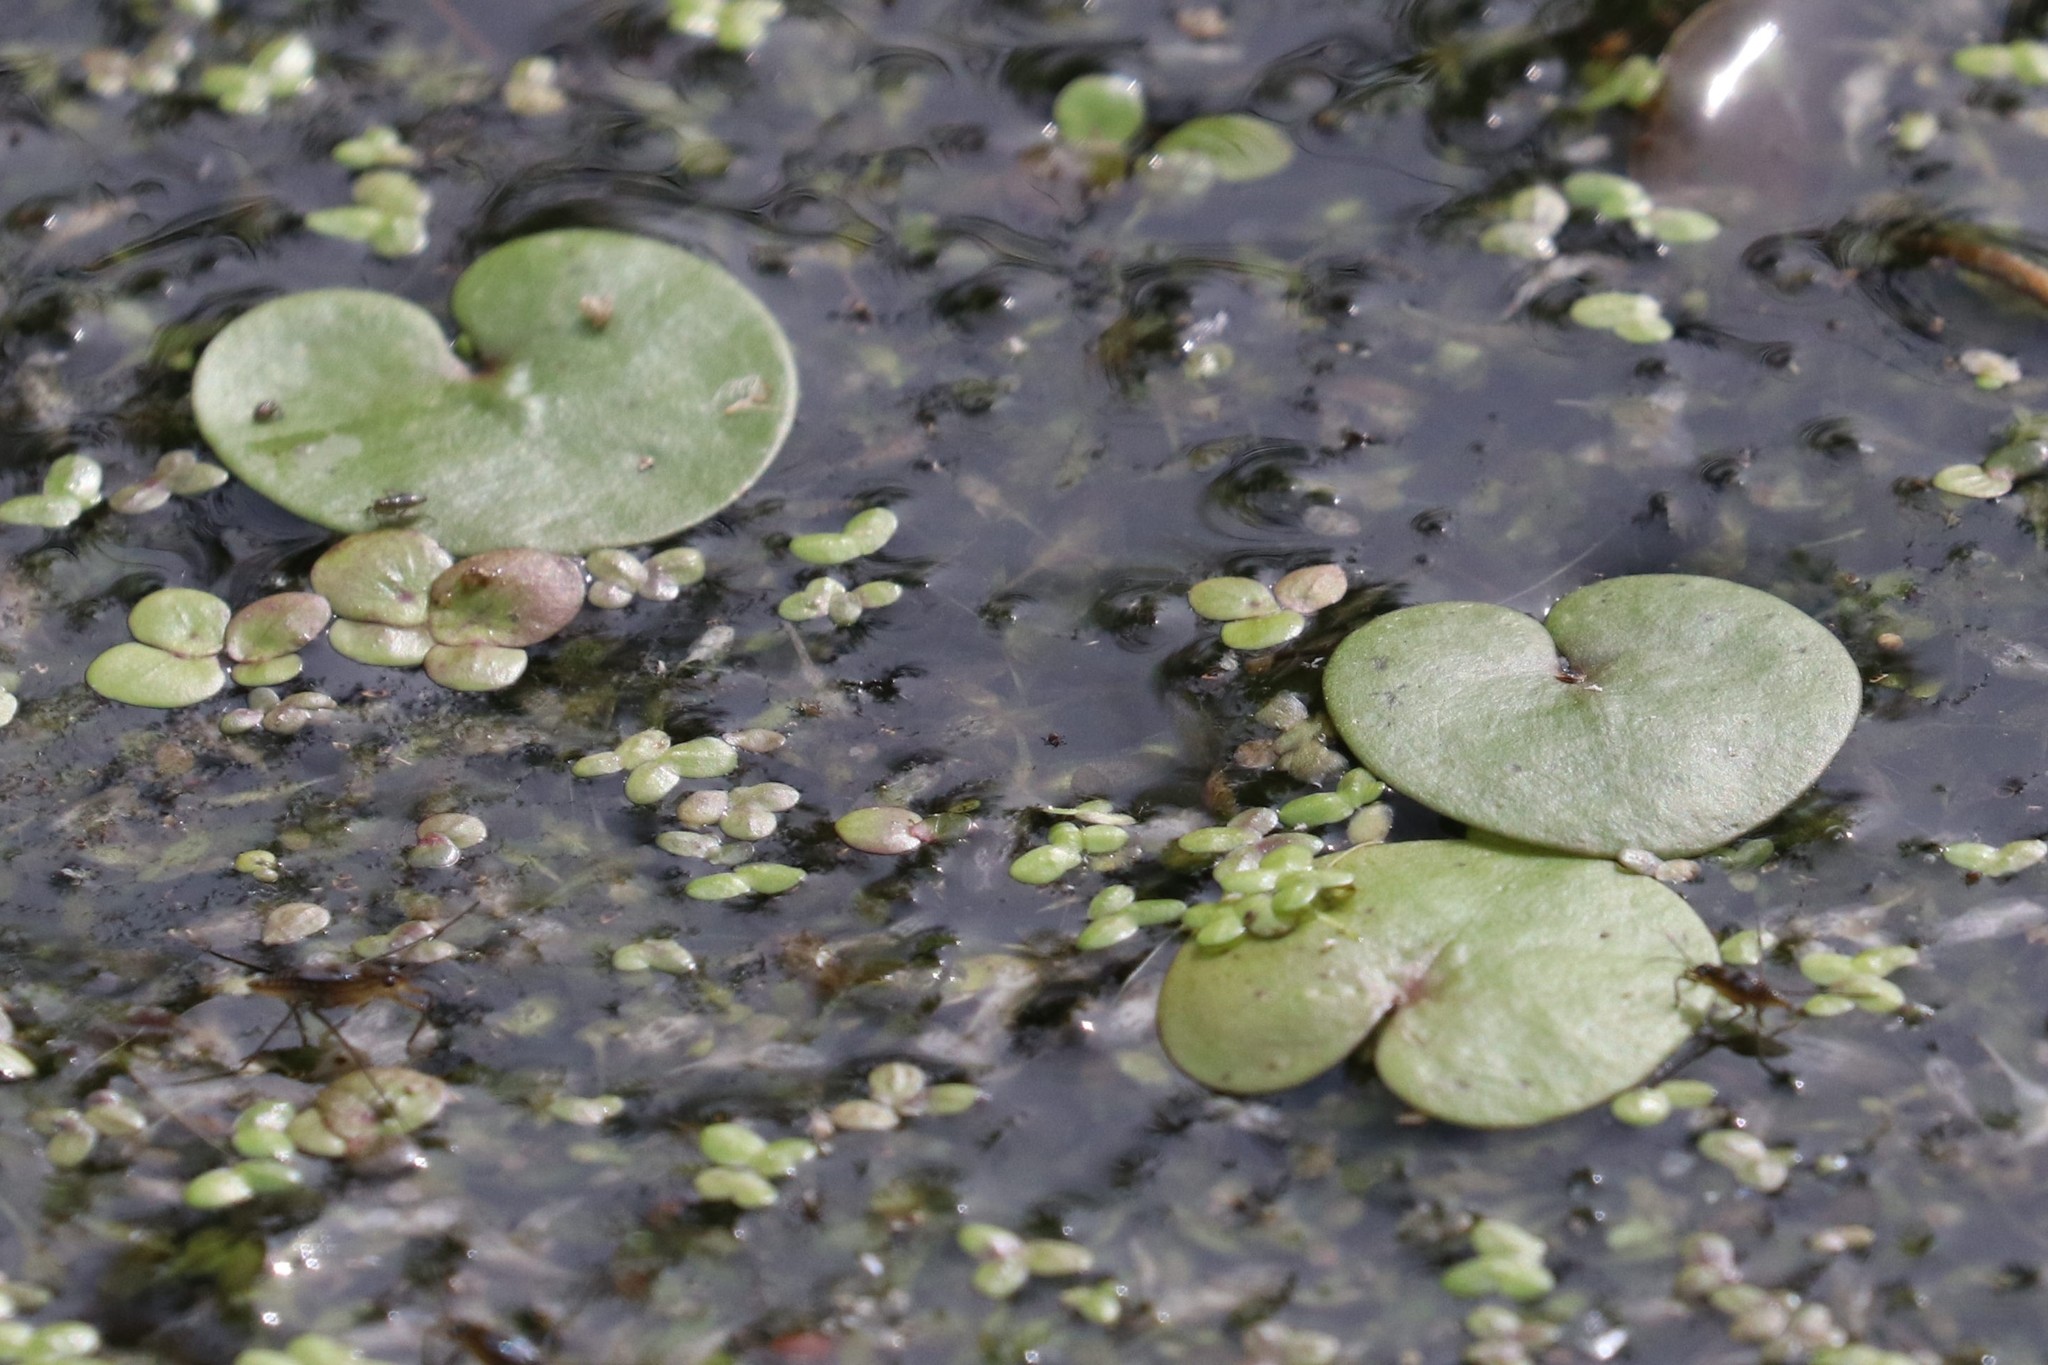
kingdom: Plantae
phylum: Tracheophyta
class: Liliopsida
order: Alismatales
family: Hydrocharitaceae
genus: Hydrocharis
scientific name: Hydrocharis morsus-ranae
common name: Frogbit
